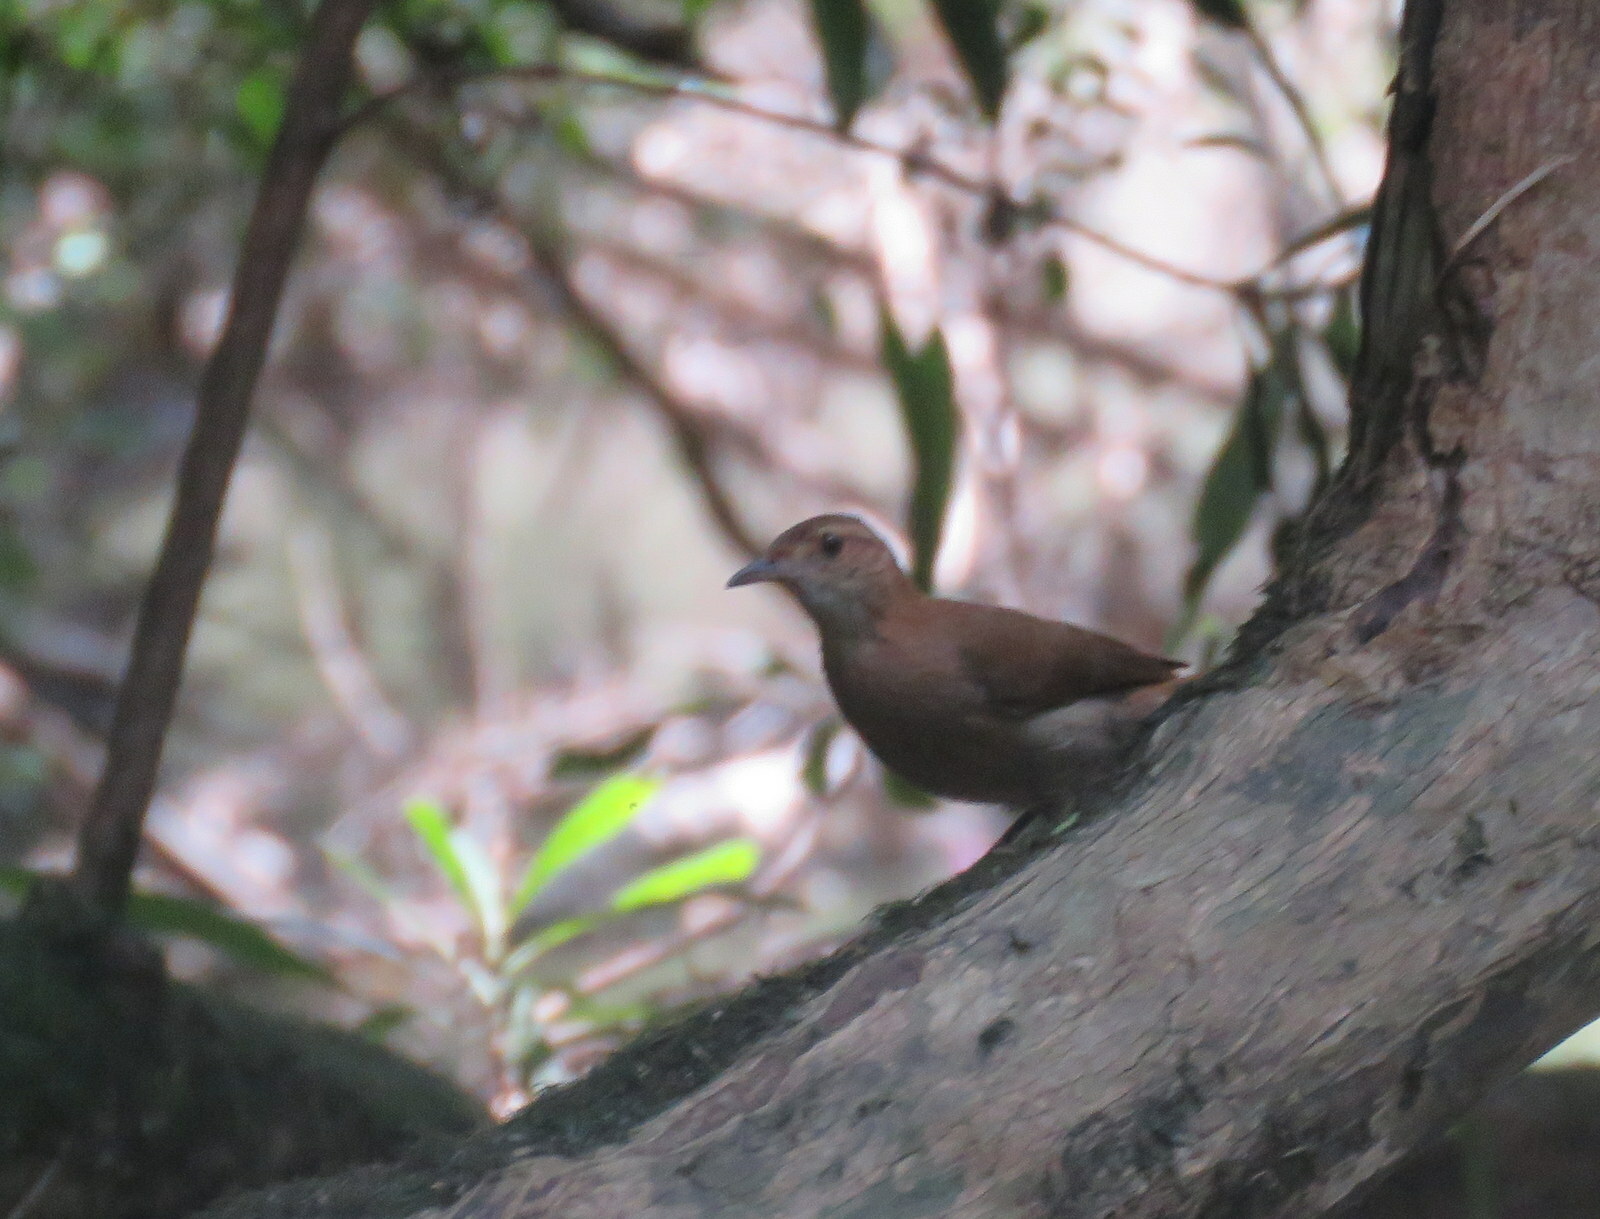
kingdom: Animalia
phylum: Chordata
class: Aves
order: Passeriformes
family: Furnariidae
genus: Furnarius
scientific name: Furnarius rufus
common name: Rufous hornero
